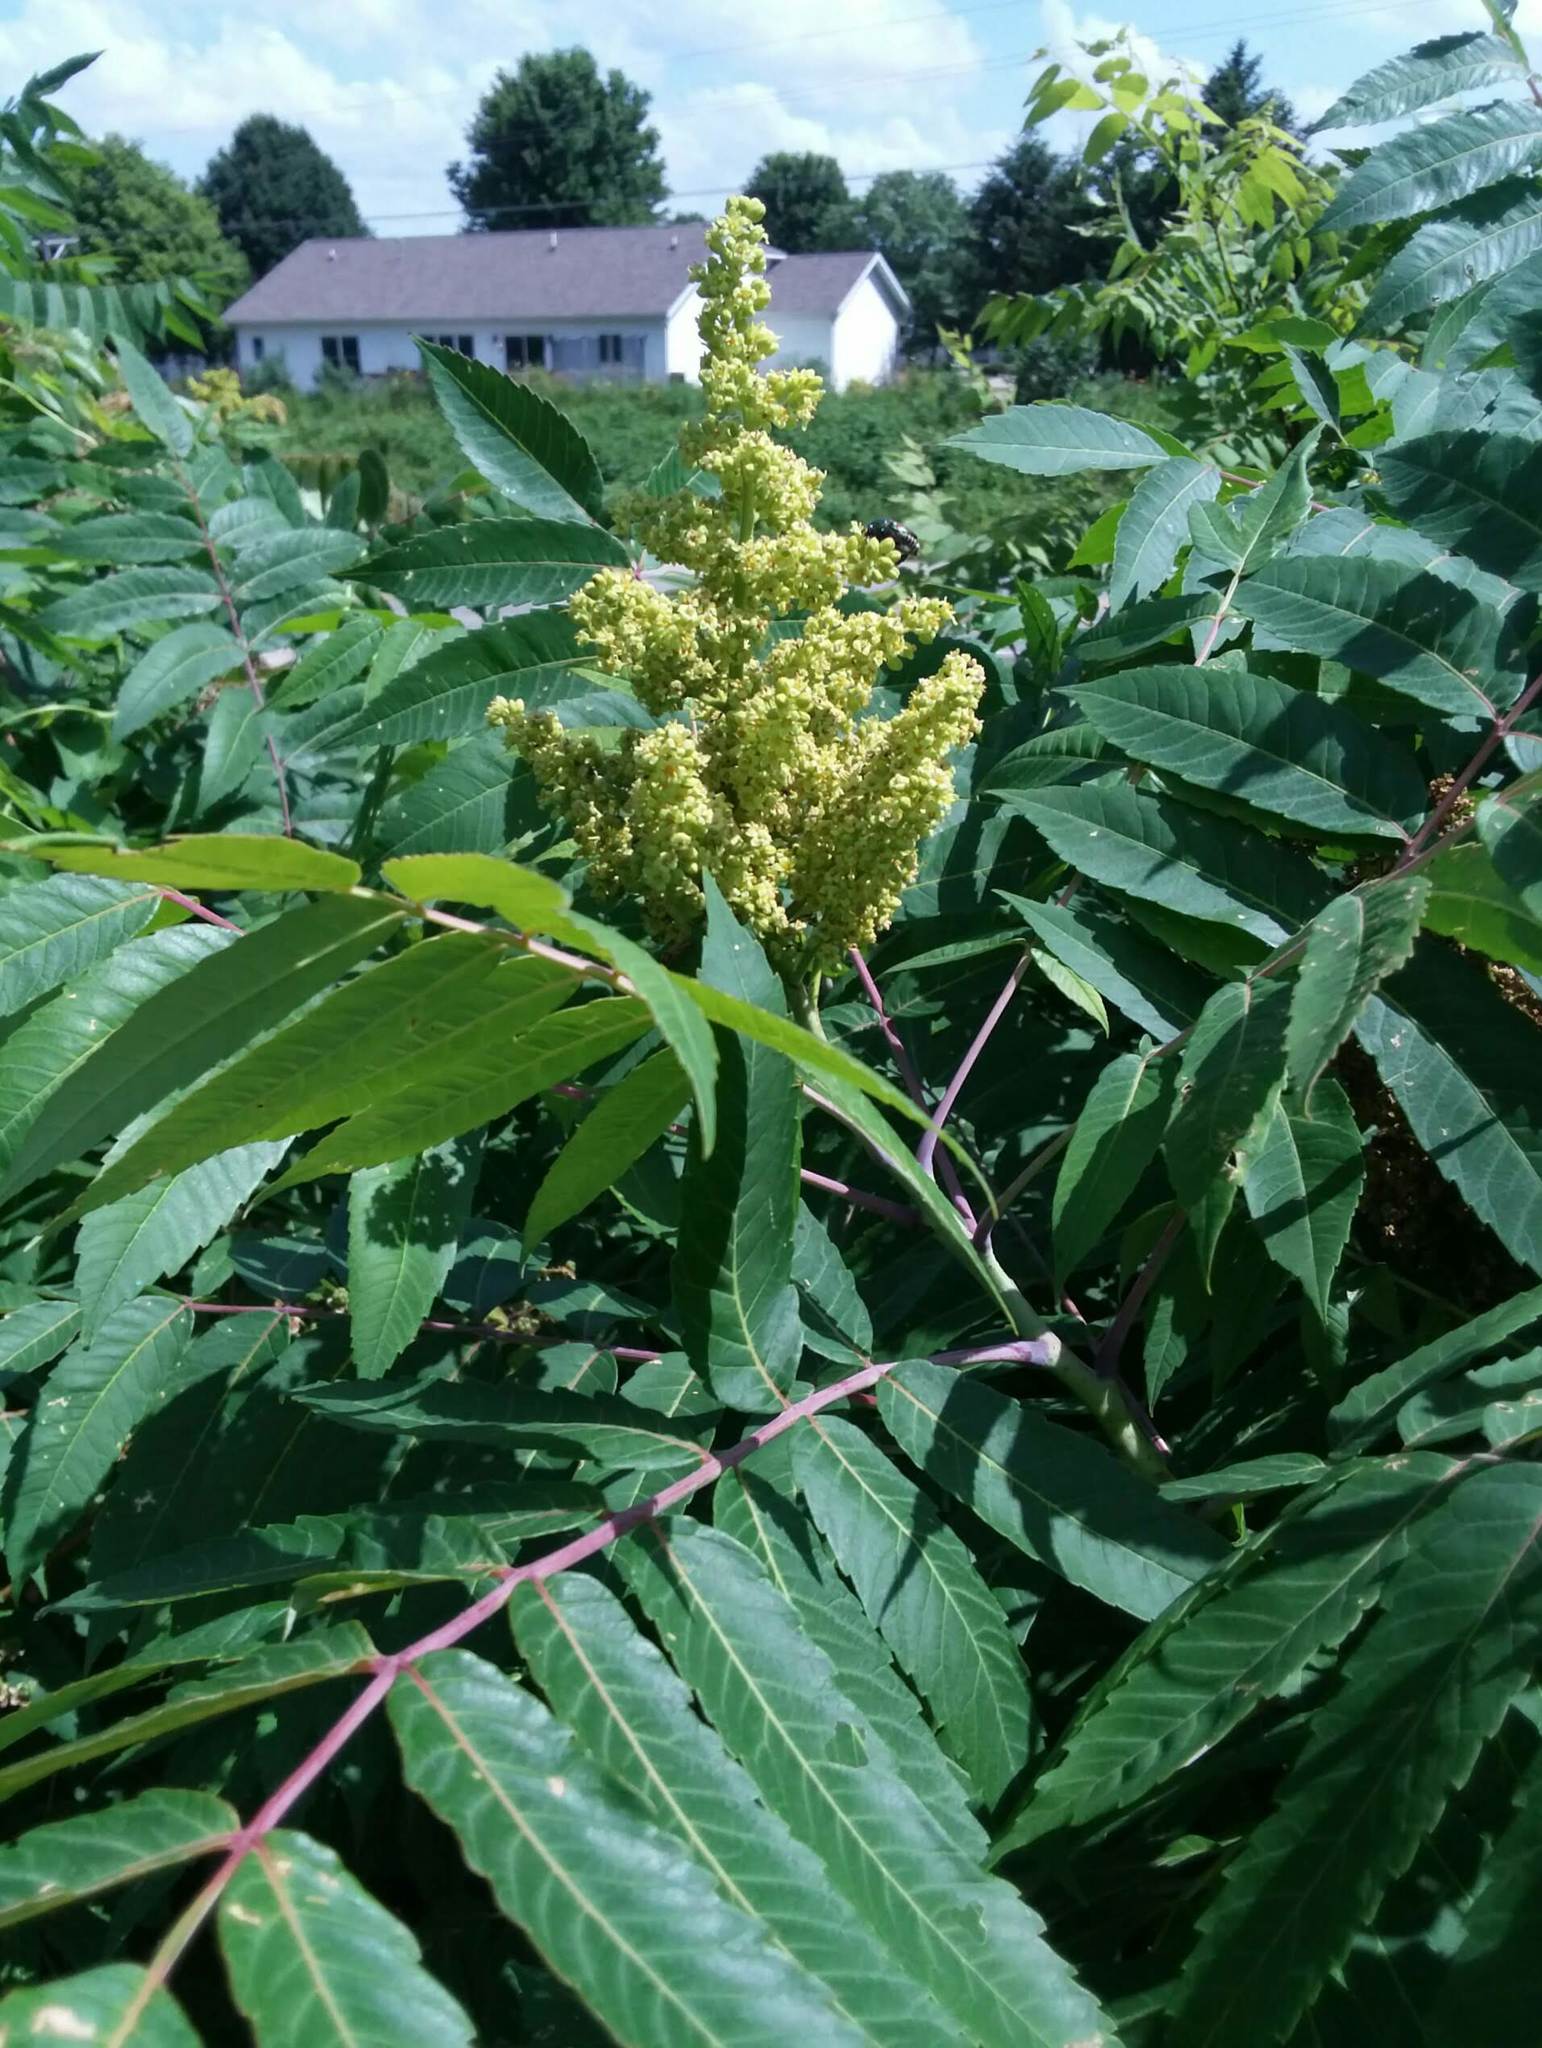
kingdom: Plantae
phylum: Tracheophyta
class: Magnoliopsida
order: Sapindales
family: Anacardiaceae
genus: Rhus
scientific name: Rhus glabra
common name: Scarlet sumac
